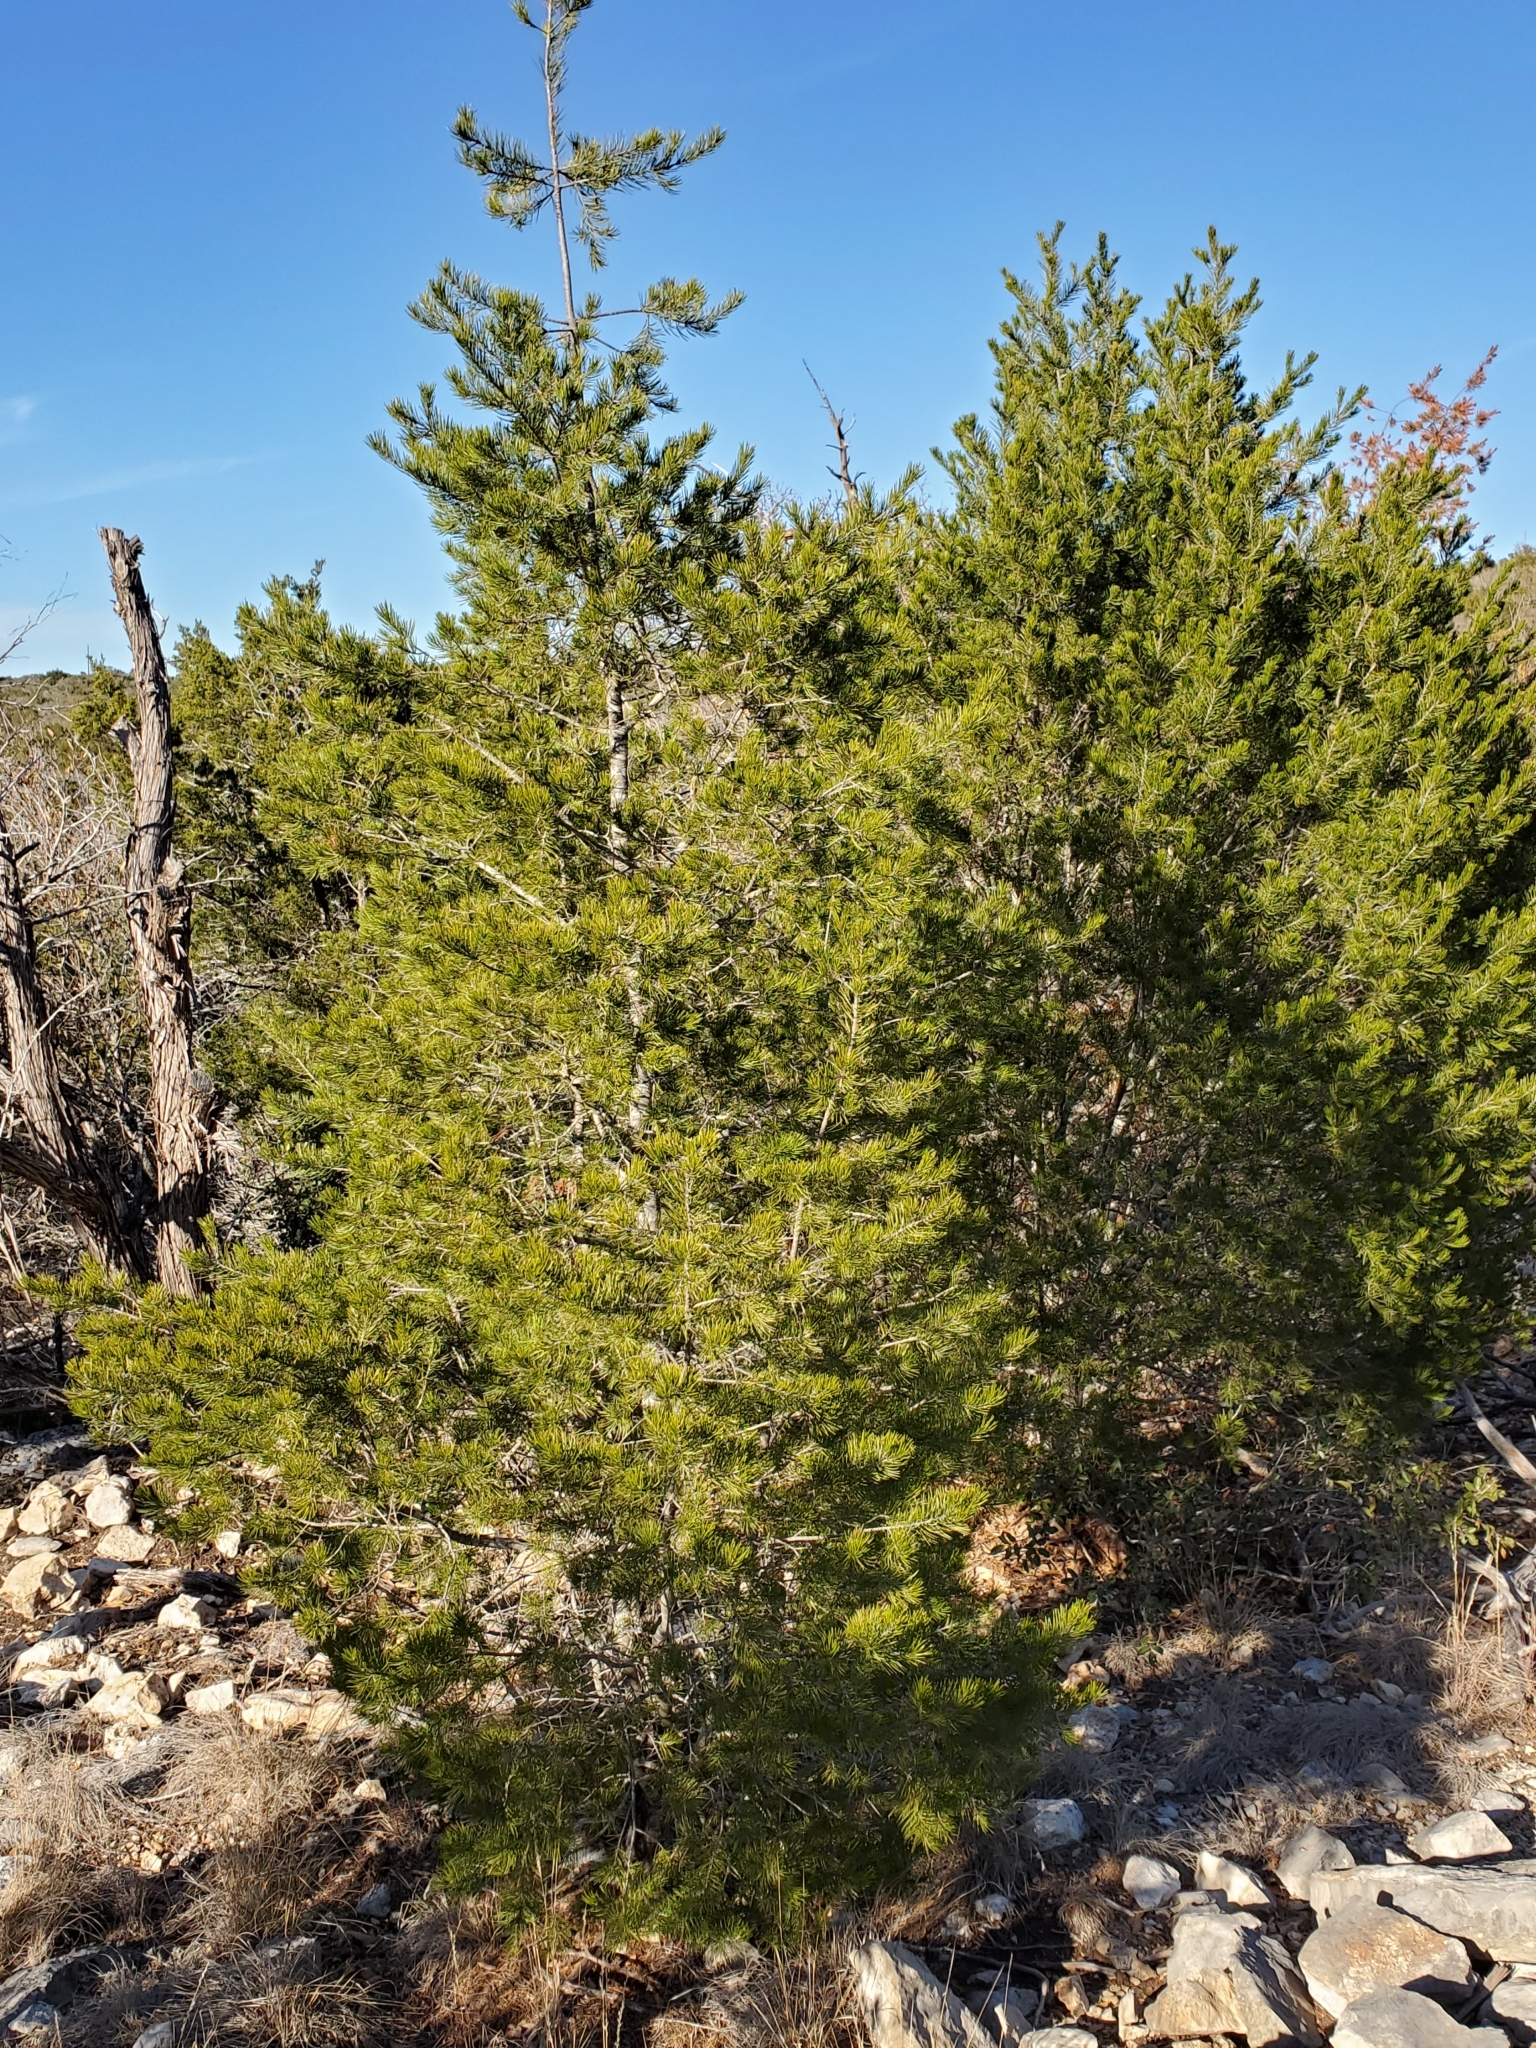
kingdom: Plantae
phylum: Tracheophyta
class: Pinopsida
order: Pinales
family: Pinaceae
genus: Pinus
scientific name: Pinus remota
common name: Nut pine
